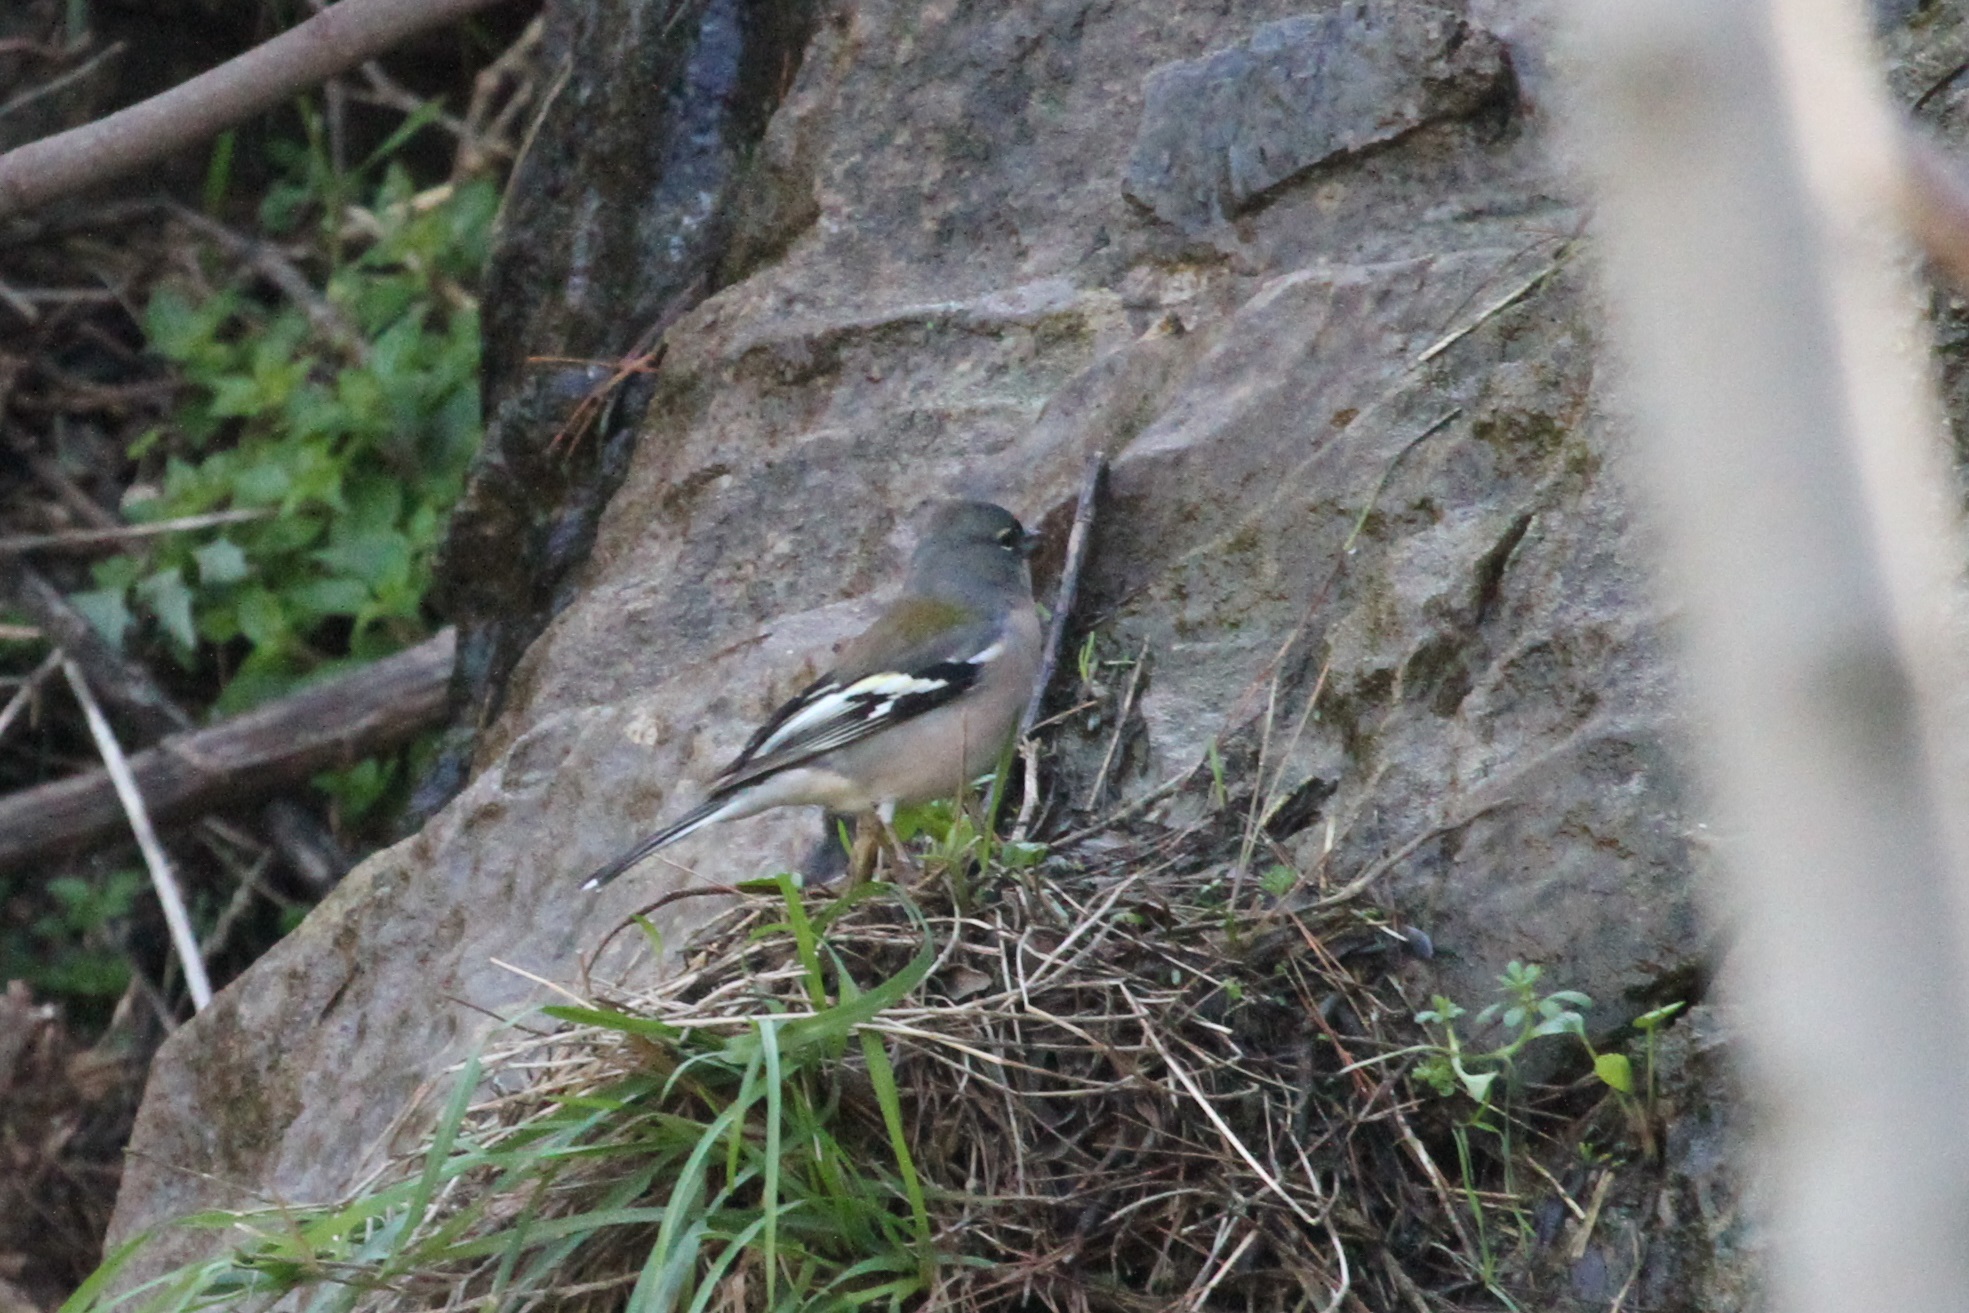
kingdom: Animalia
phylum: Chordata
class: Aves
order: Passeriformes
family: Fringillidae
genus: Fringilla
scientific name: Fringilla spodiogenys
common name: African chaffinch
